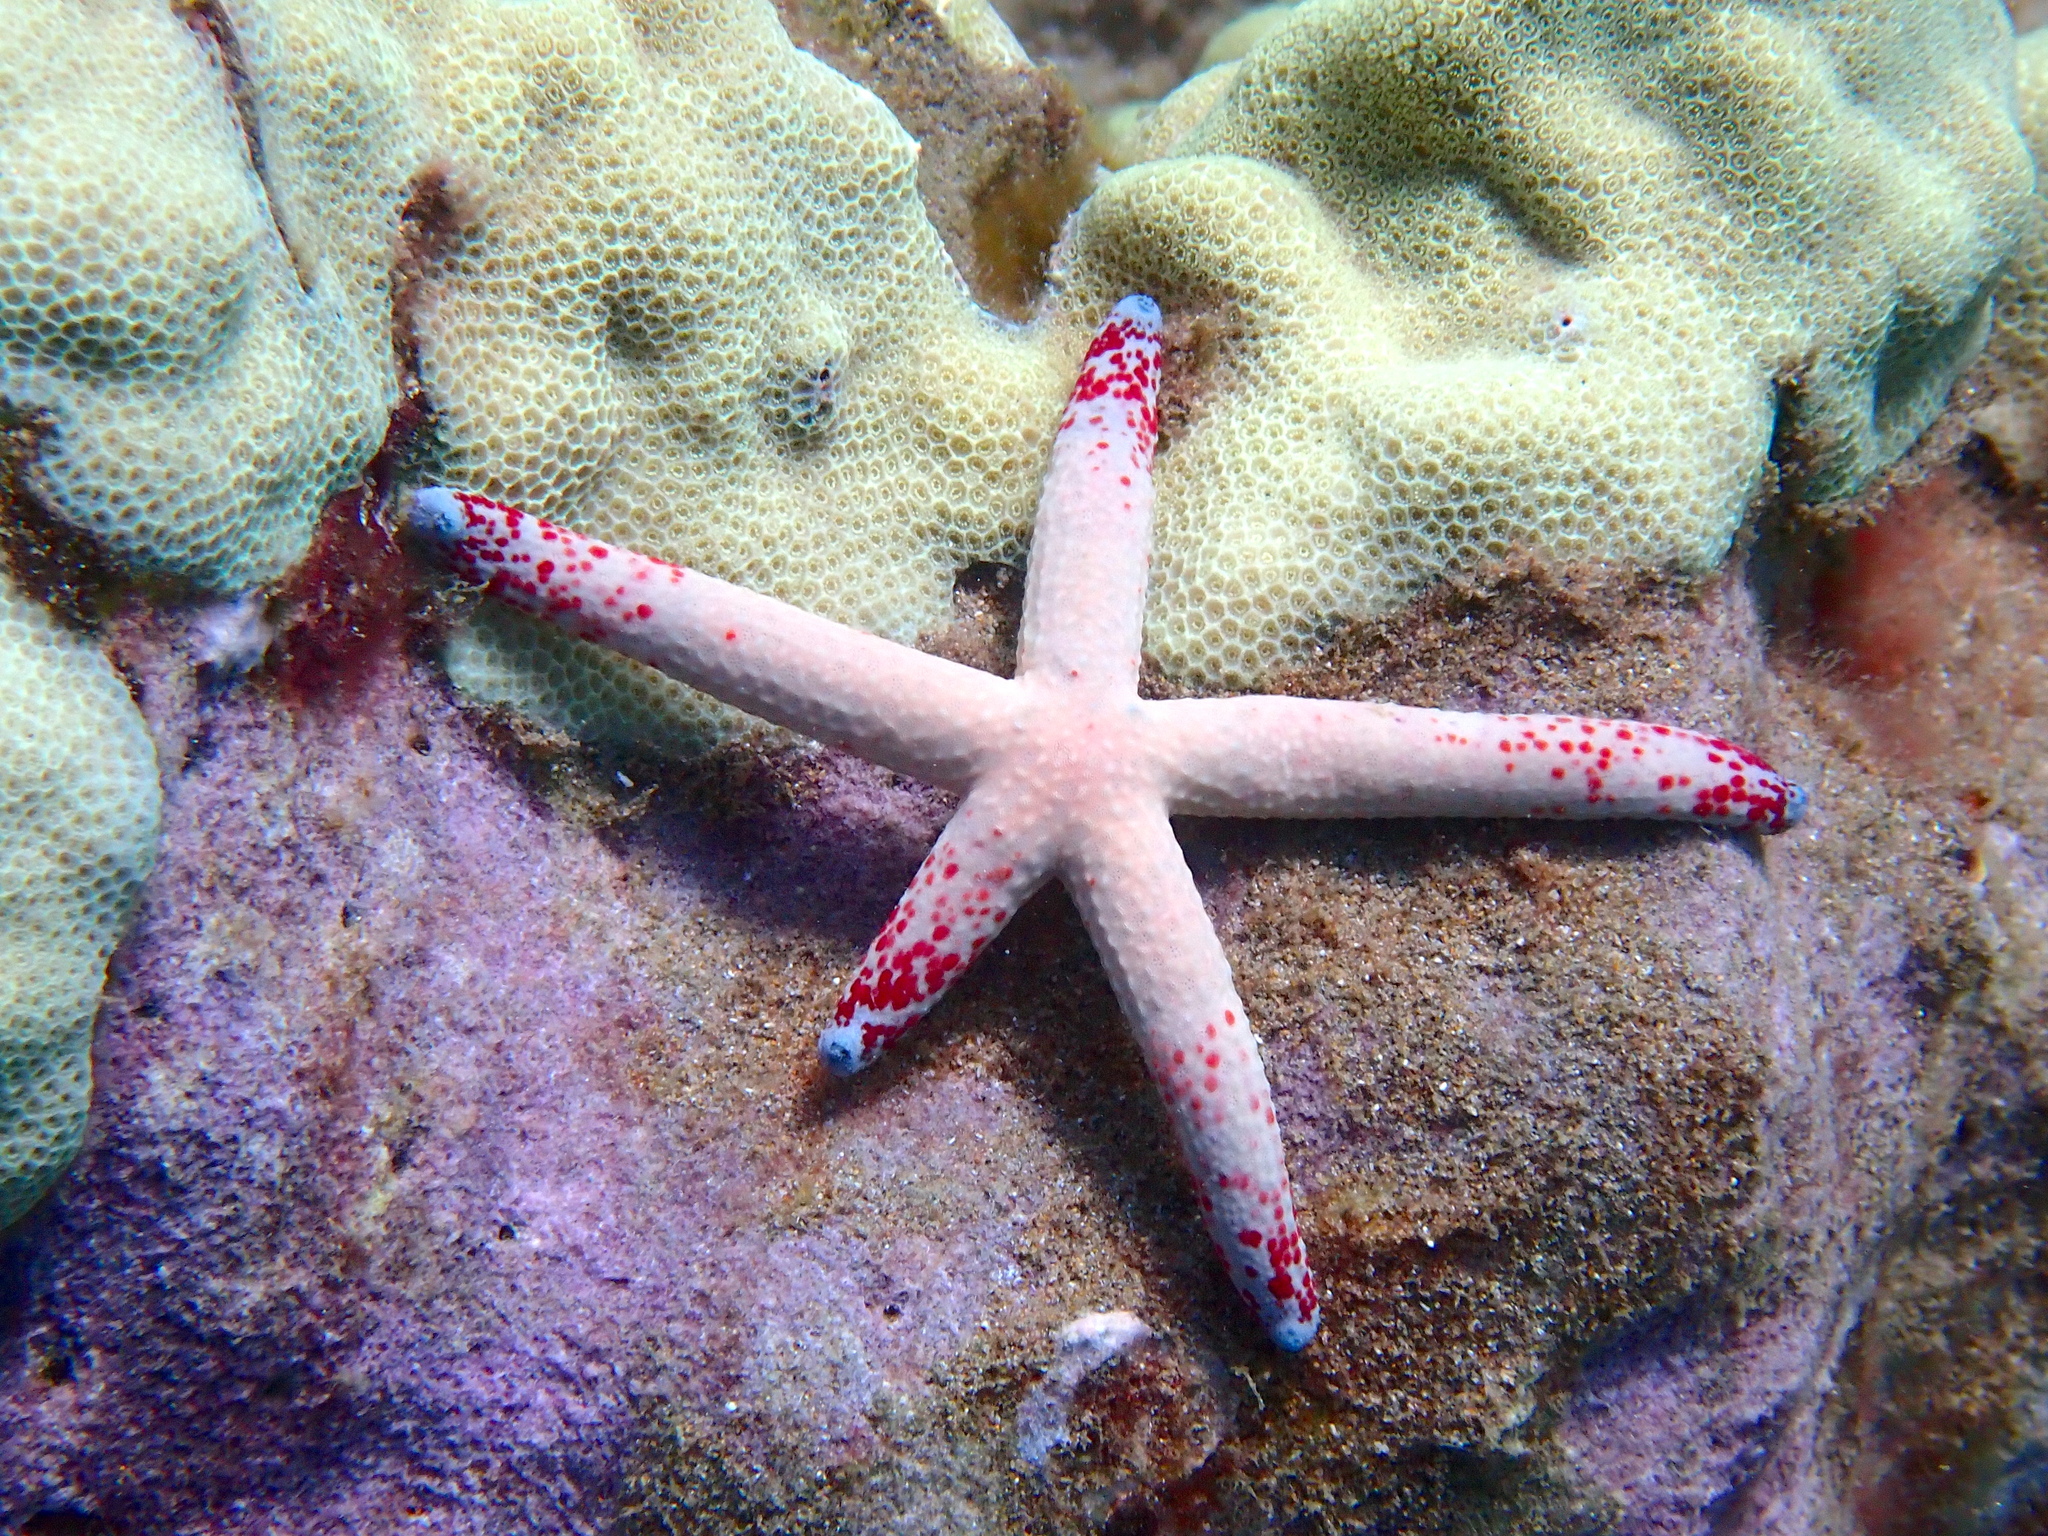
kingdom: Animalia
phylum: Echinodermata
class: Asteroidea
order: Valvatida
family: Ophidiasteridae
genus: Linckia
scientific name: Linckia multifora
